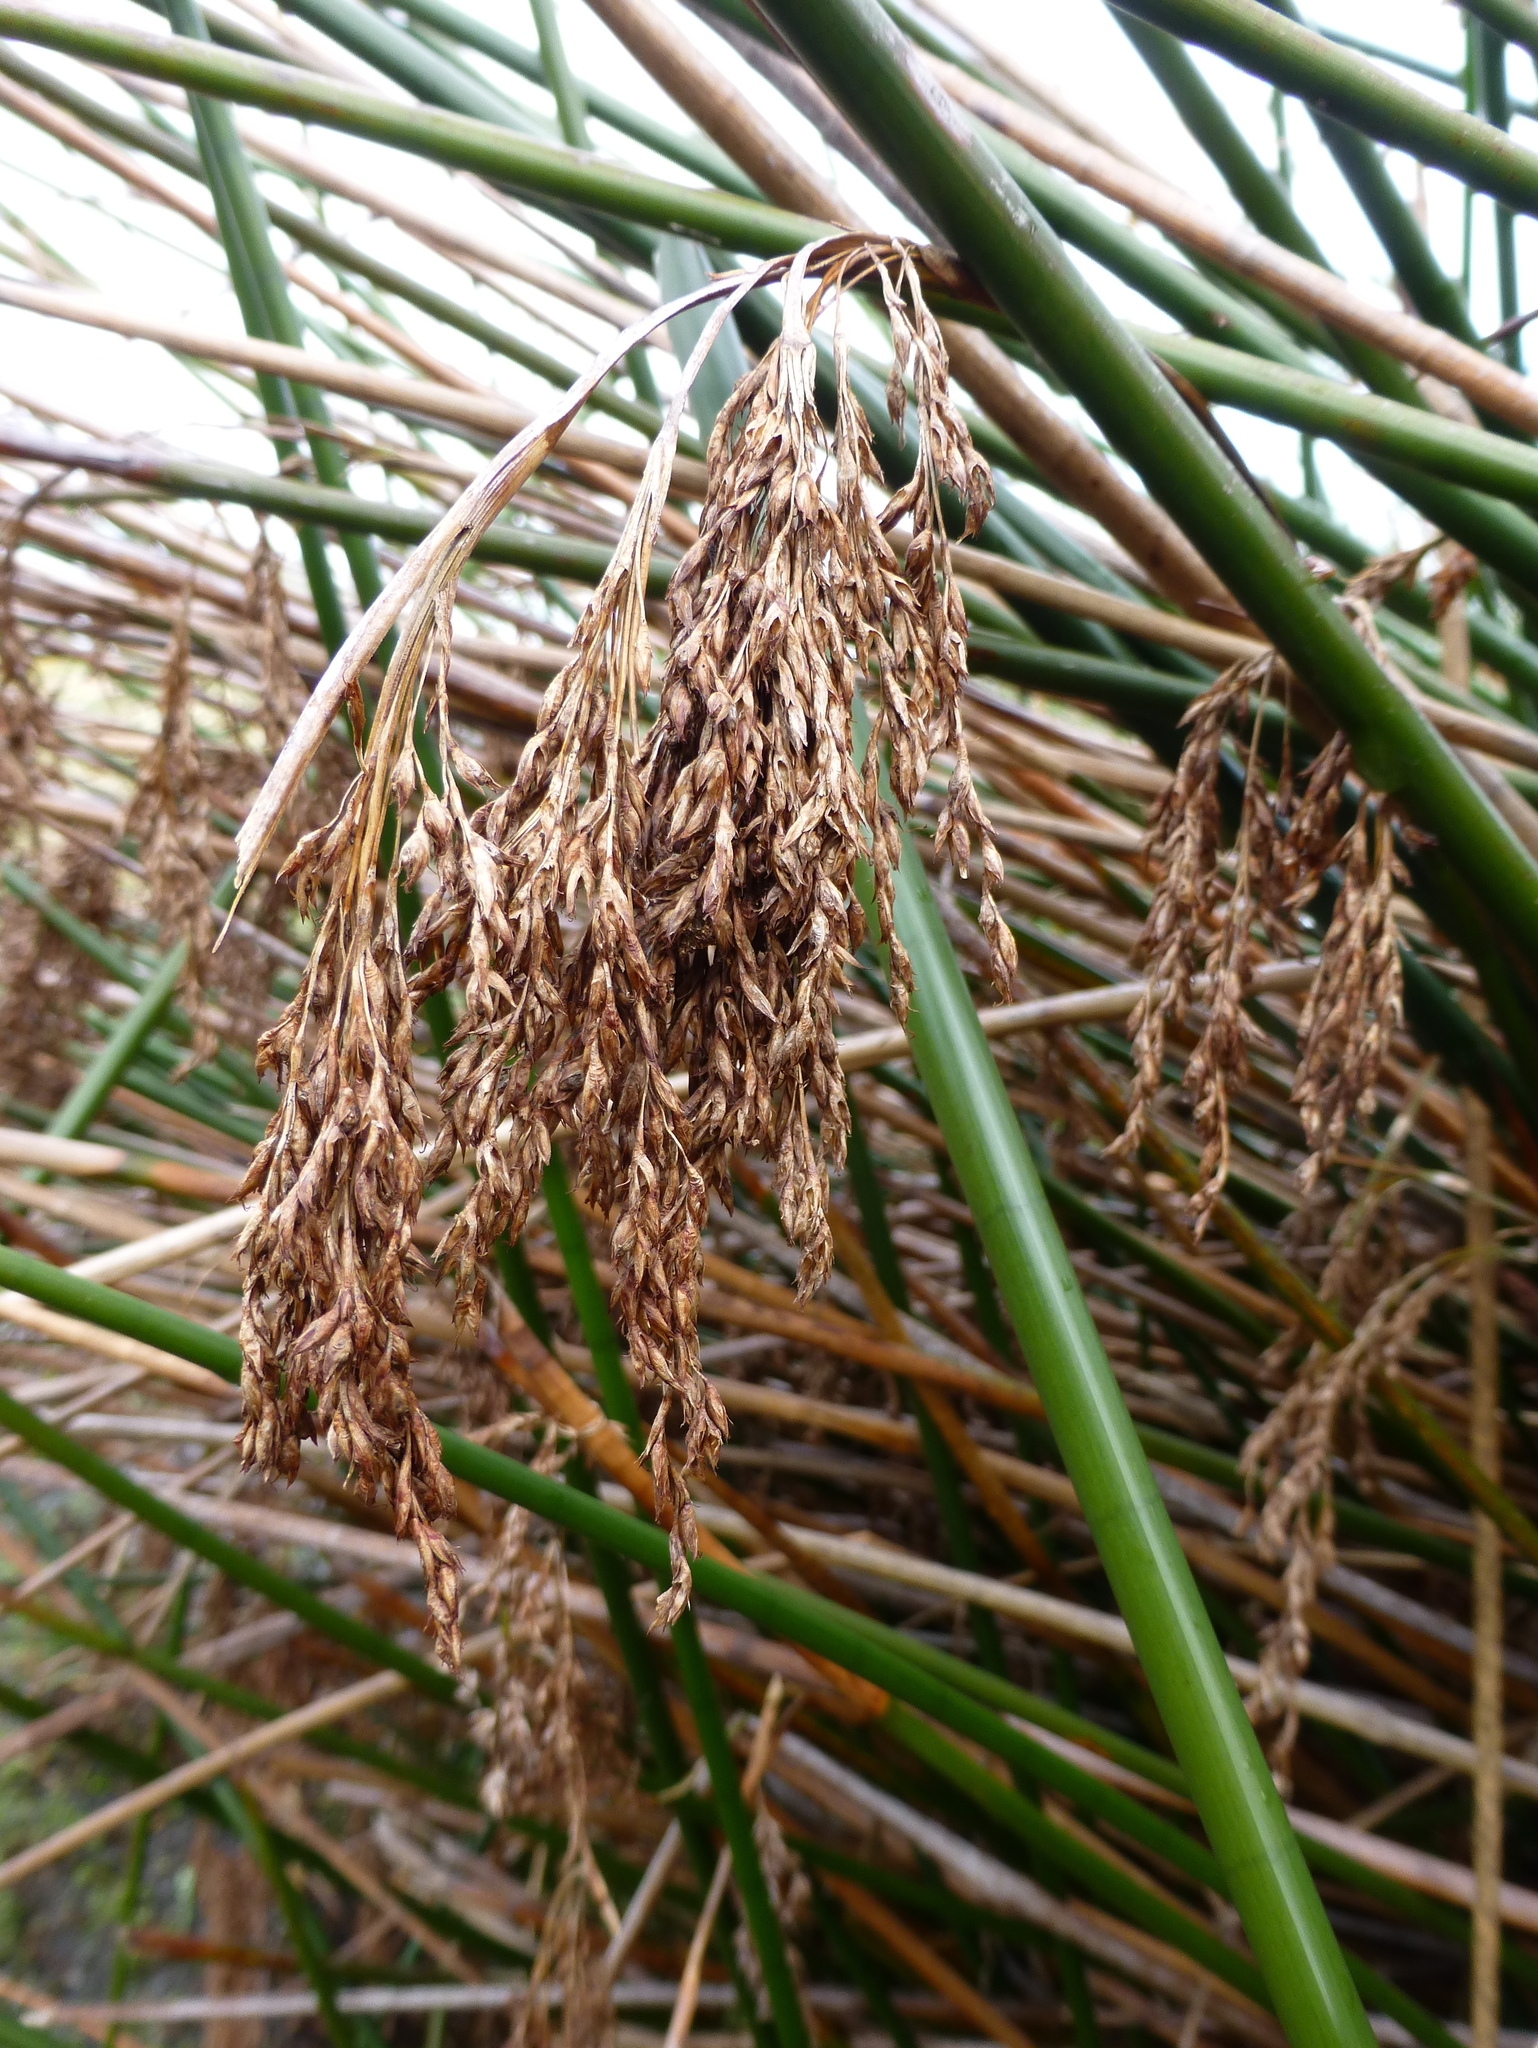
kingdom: Plantae
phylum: Tracheophyta
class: Liliopsida
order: Poales
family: Cyperaceae
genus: Machaerina
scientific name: Machaerina articulata
